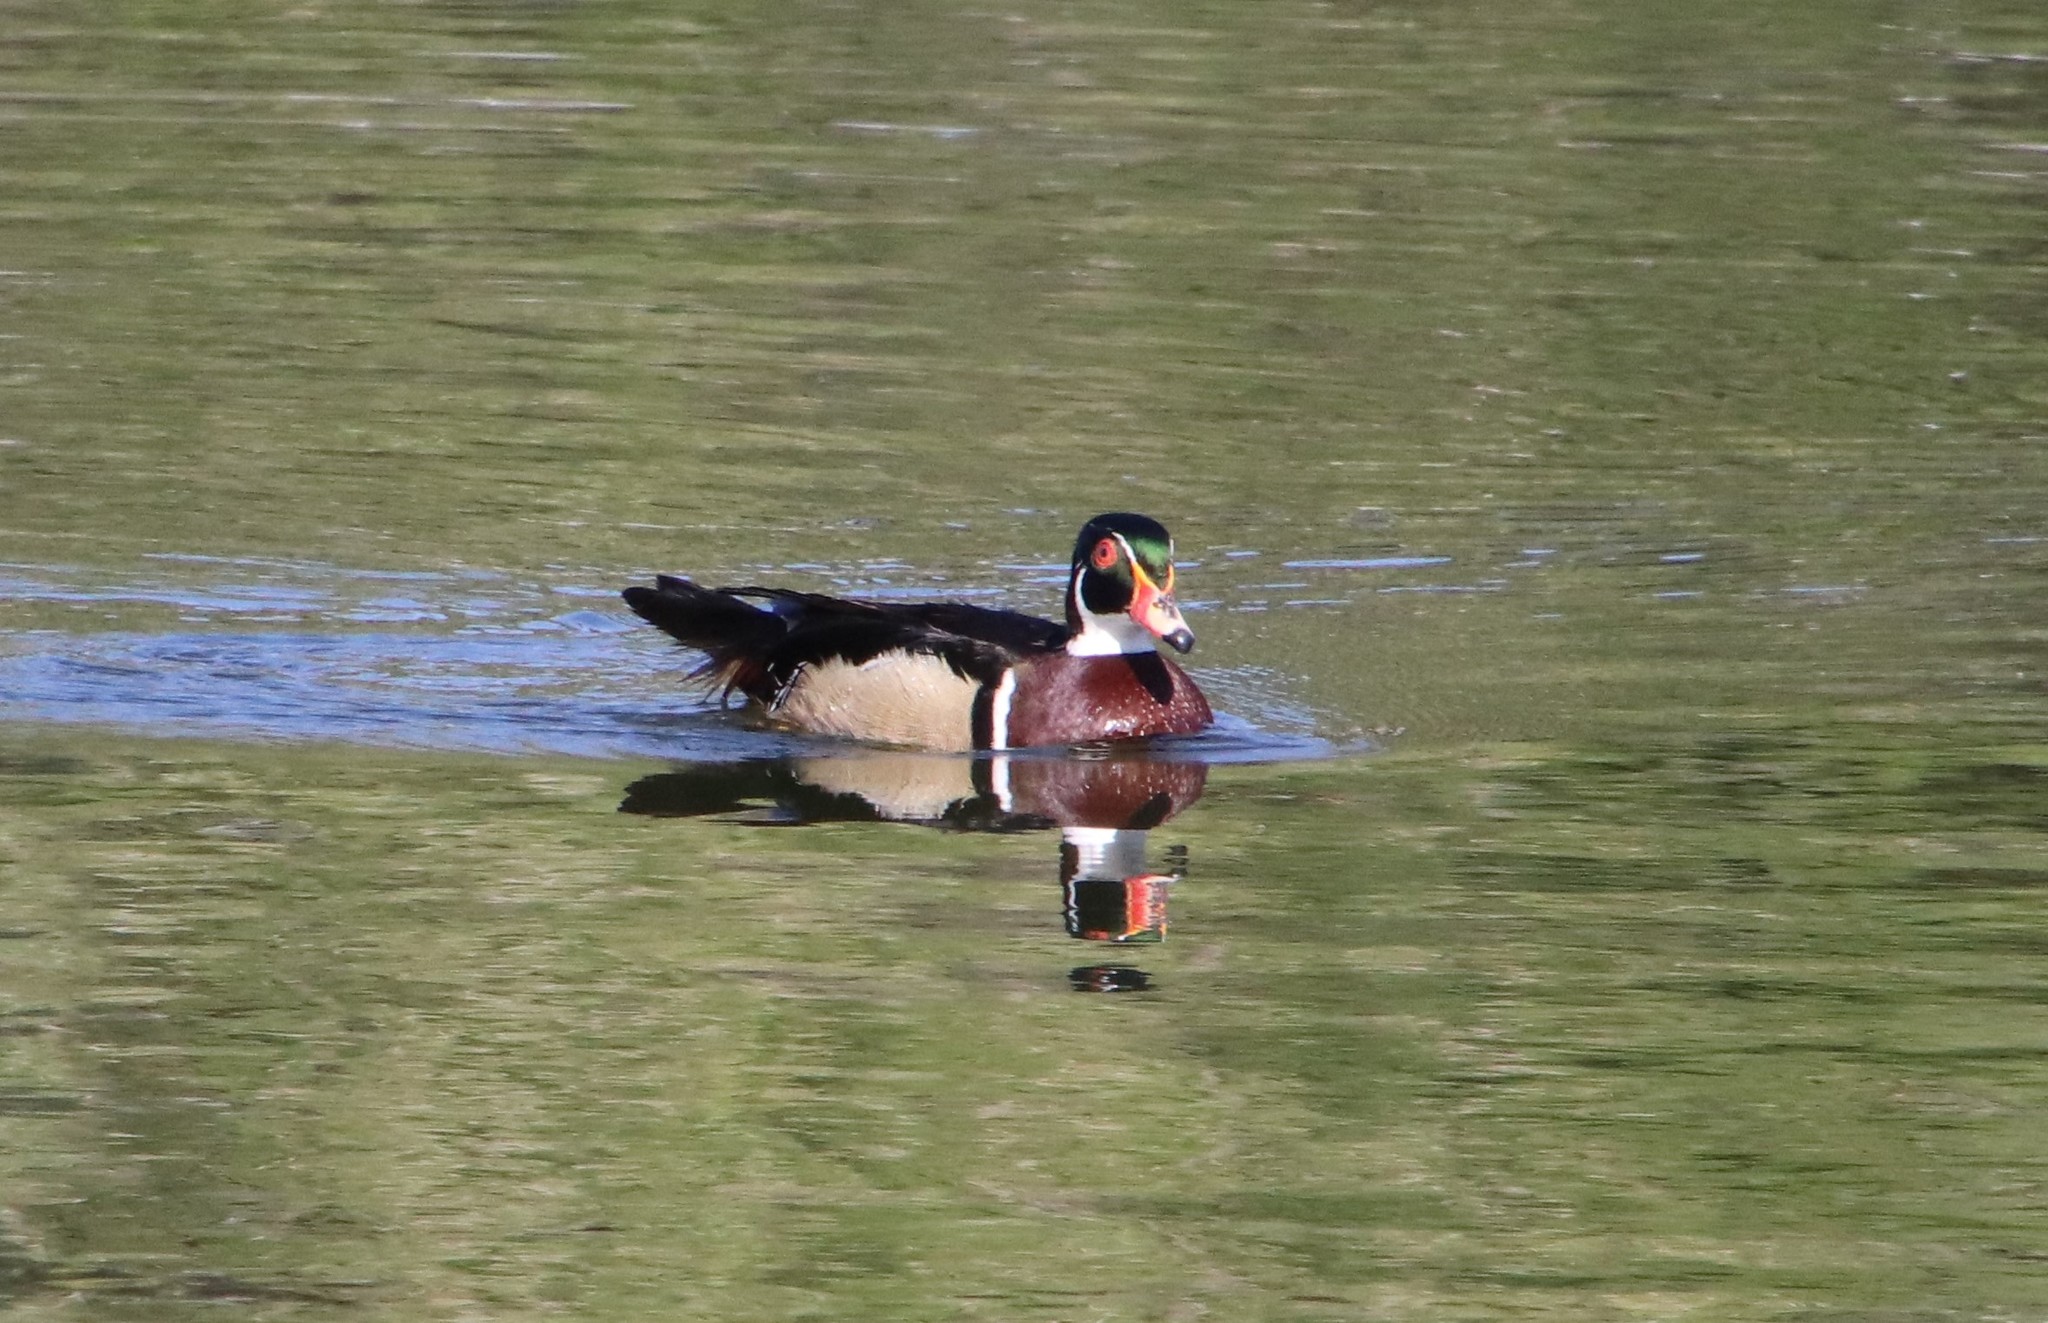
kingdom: Animalia
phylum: Chordata
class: Aves
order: Anseriformes
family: Anatidae
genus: Aix
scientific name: Aix sponsa
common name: Wood duck
